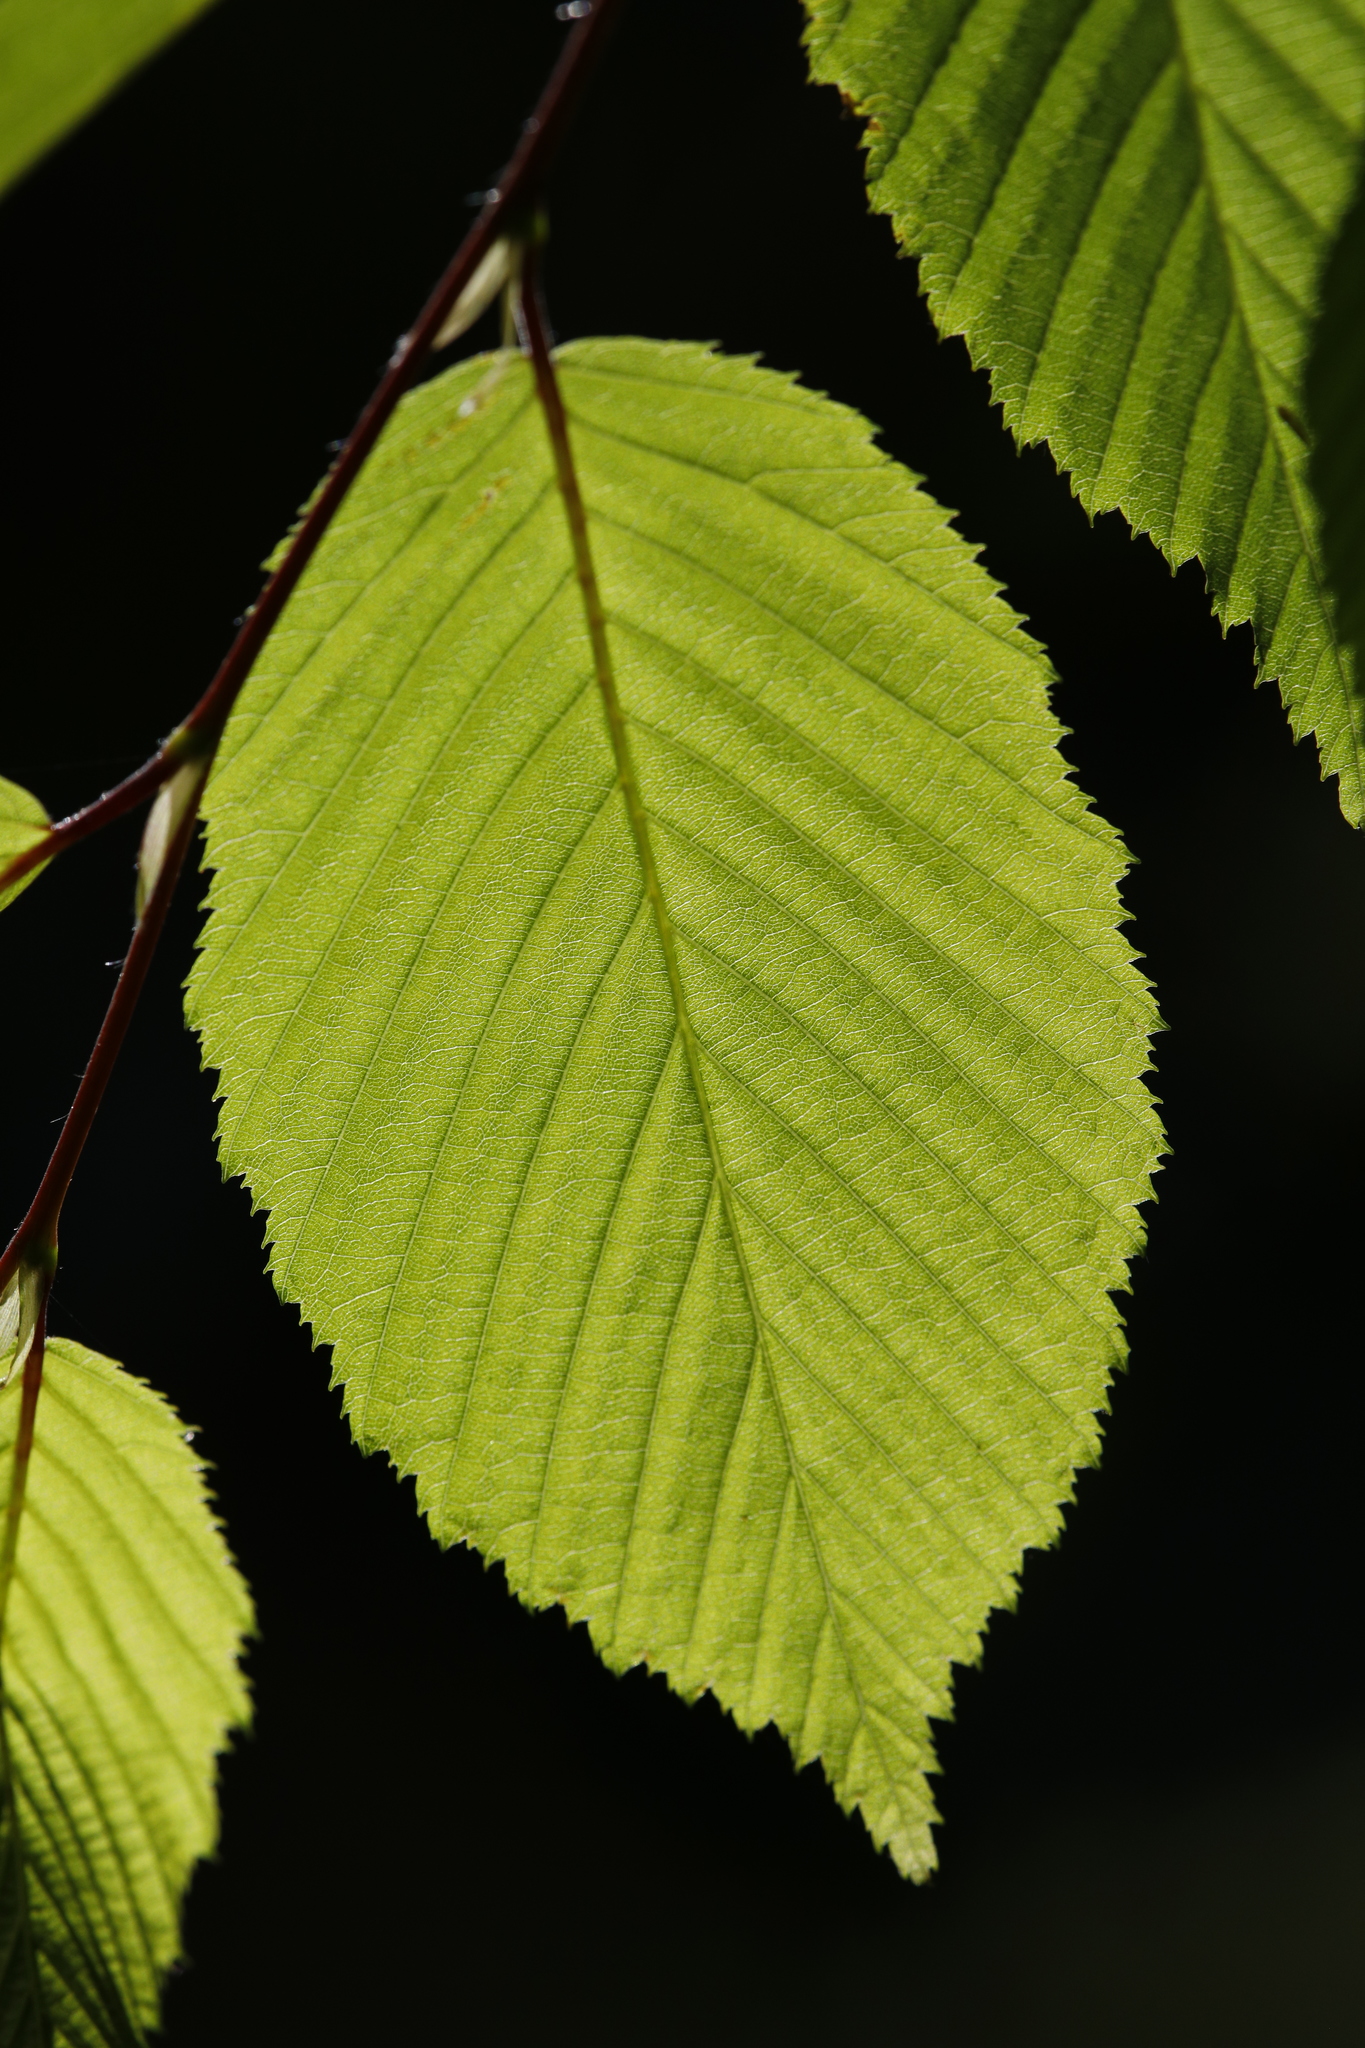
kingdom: Plantae
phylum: Tracheophyta
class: Magnoliopsida
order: Fagales
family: Betulaceae
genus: Carpinus
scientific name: Carpinus betulus
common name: Hornbeam
